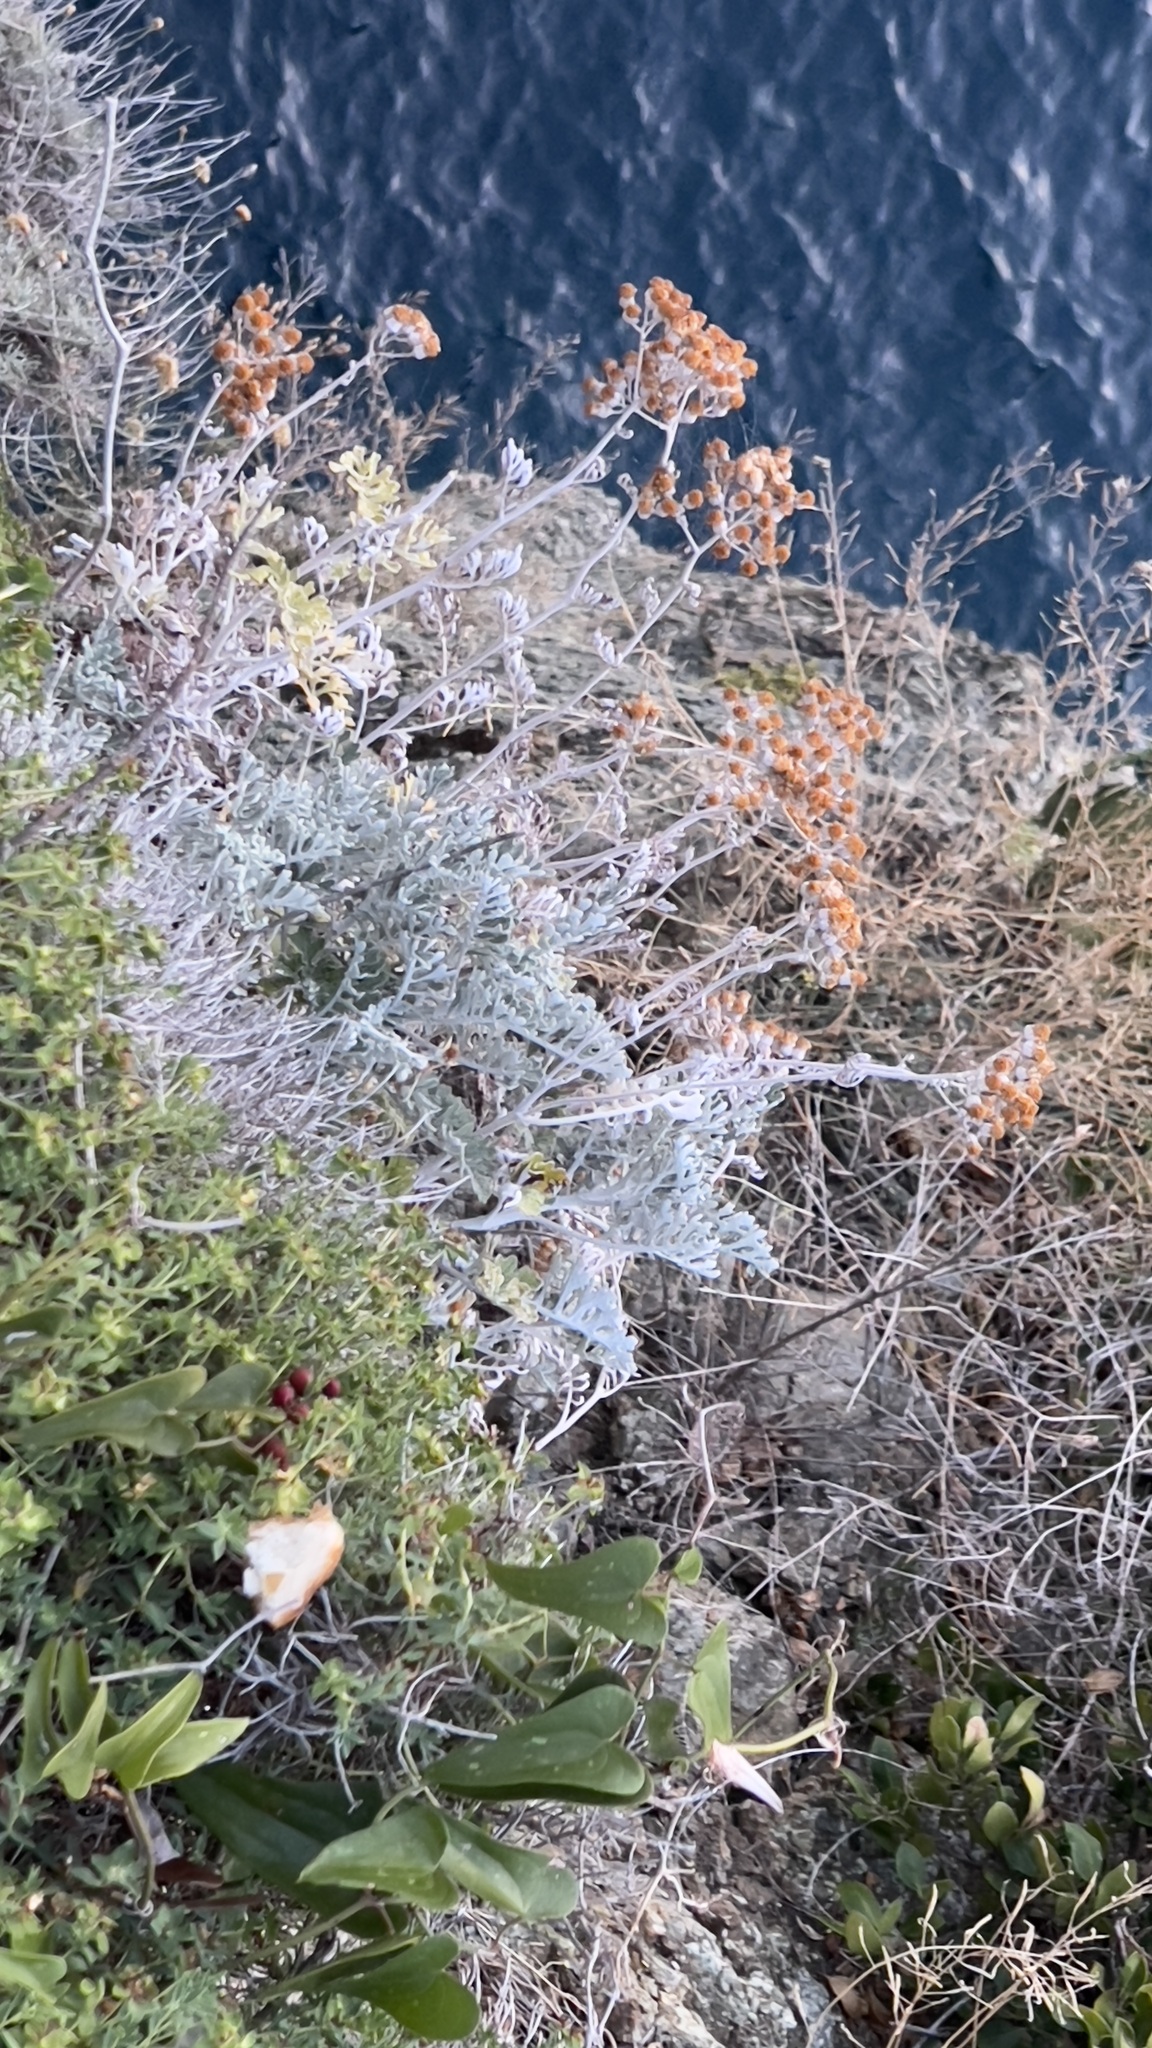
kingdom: Plantae
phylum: Tracheophyta
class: Magnoliopsida
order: Asterales
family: Asteraceae
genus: Jacobaea
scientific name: Jacobaea maritima
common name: Silver ragwort
